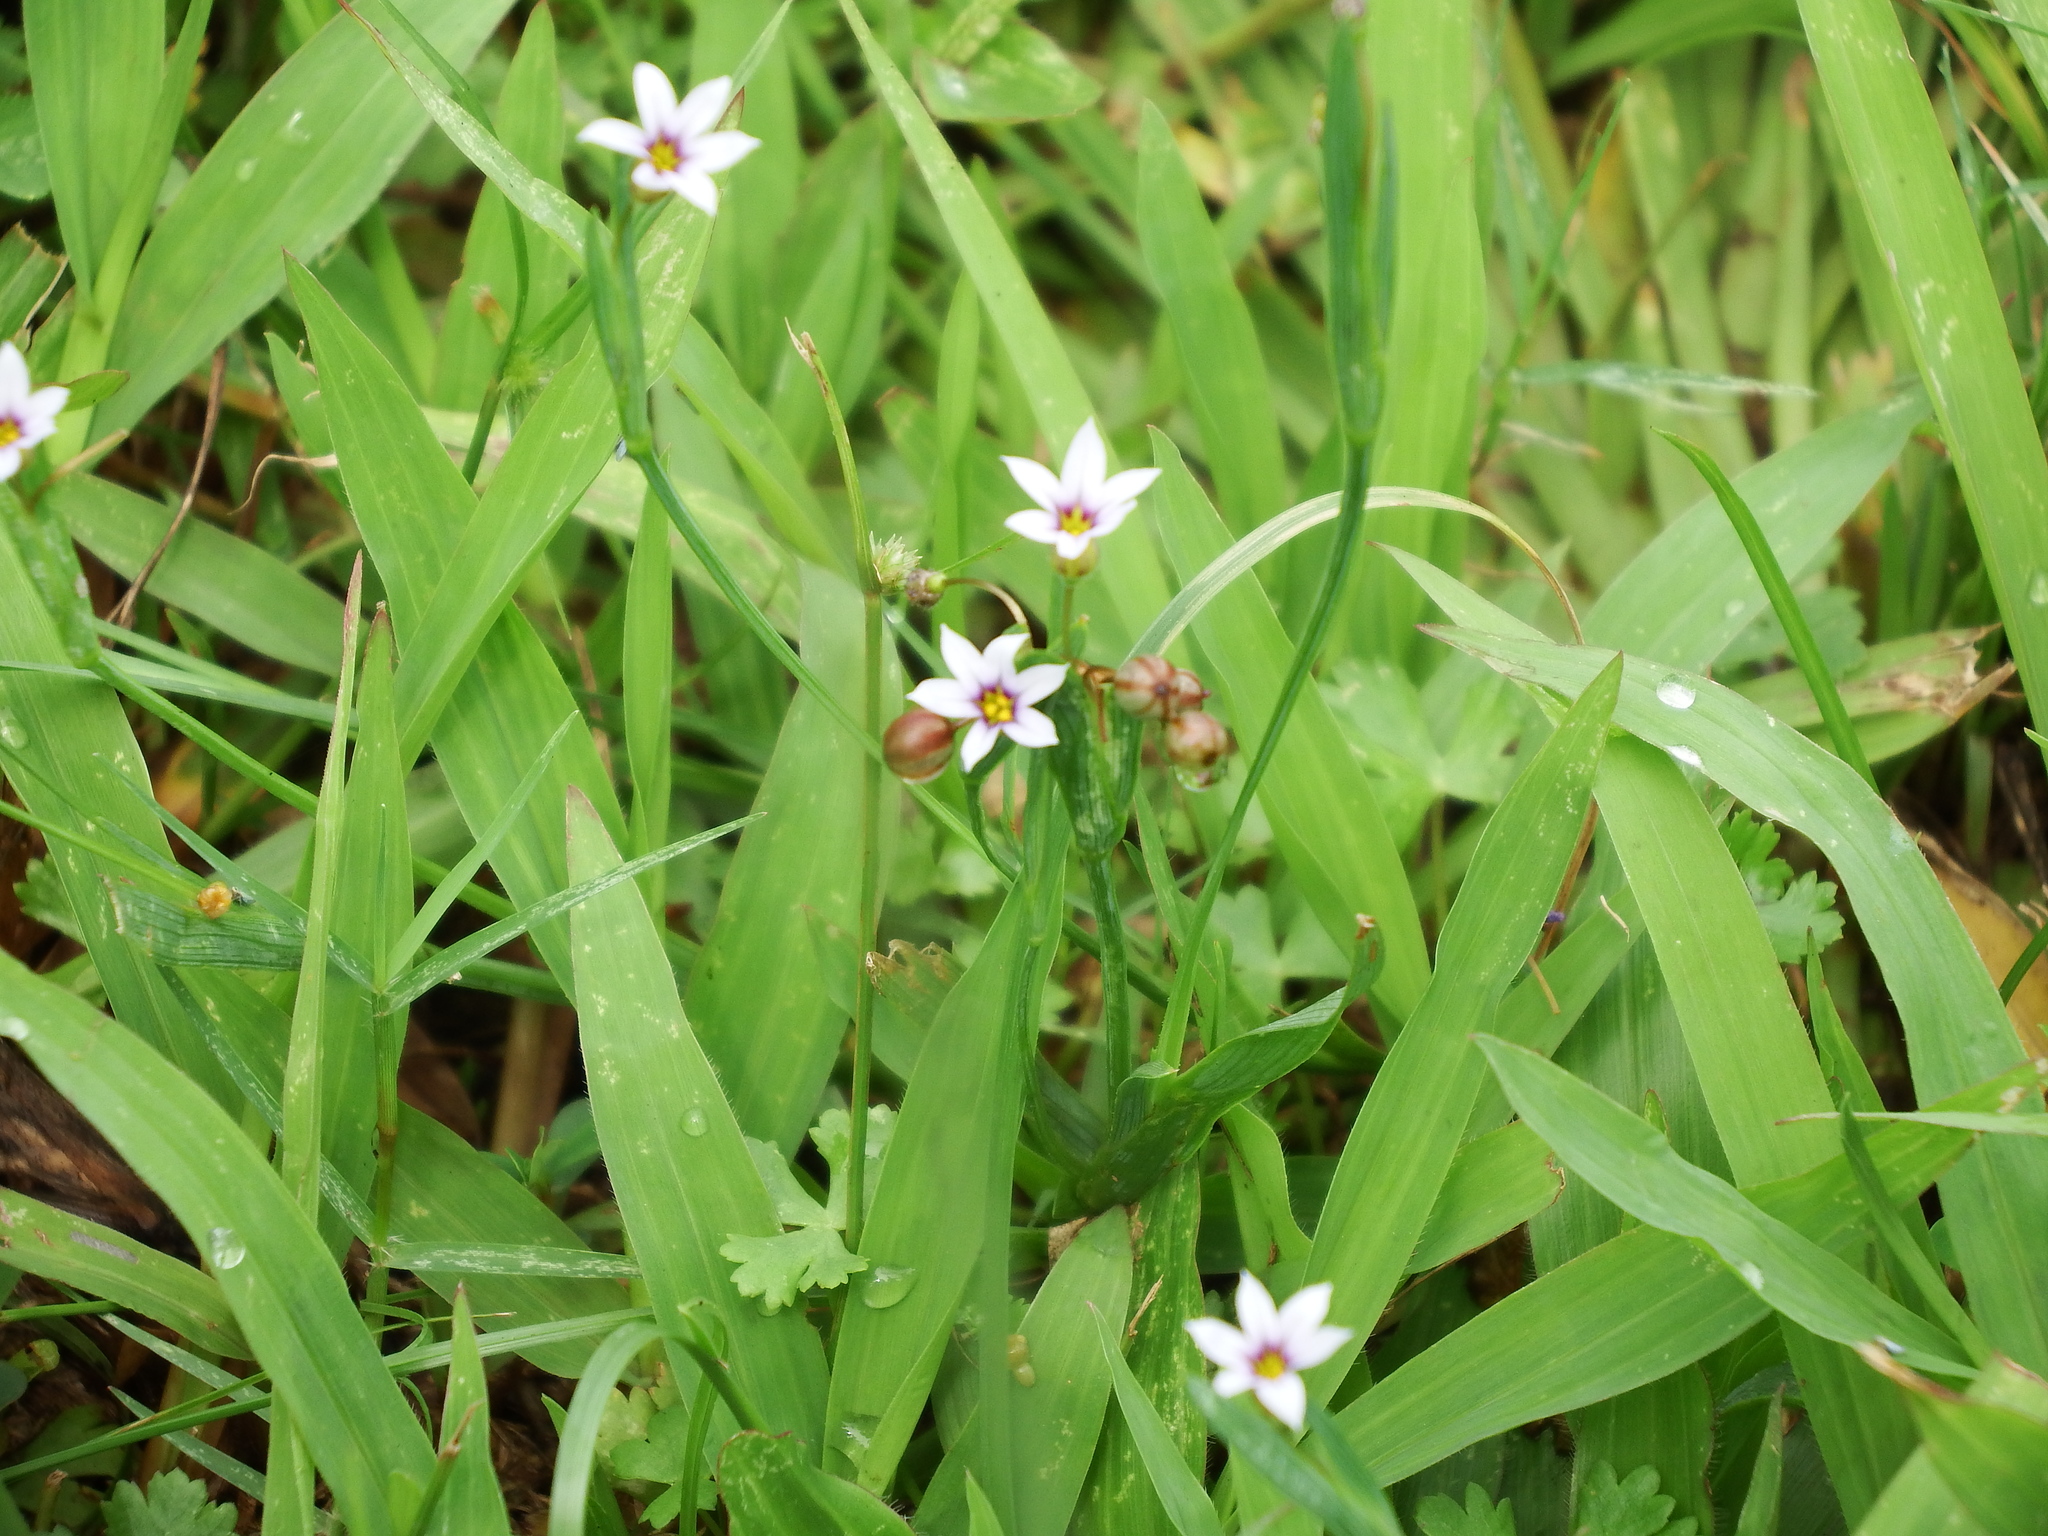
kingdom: Plantae
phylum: Tracheophyta
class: Liliopsida
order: Asparagales
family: Iridaceae
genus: Sisyrinchium
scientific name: Sisyrinchium micranthum
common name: Bermuda pigroot
